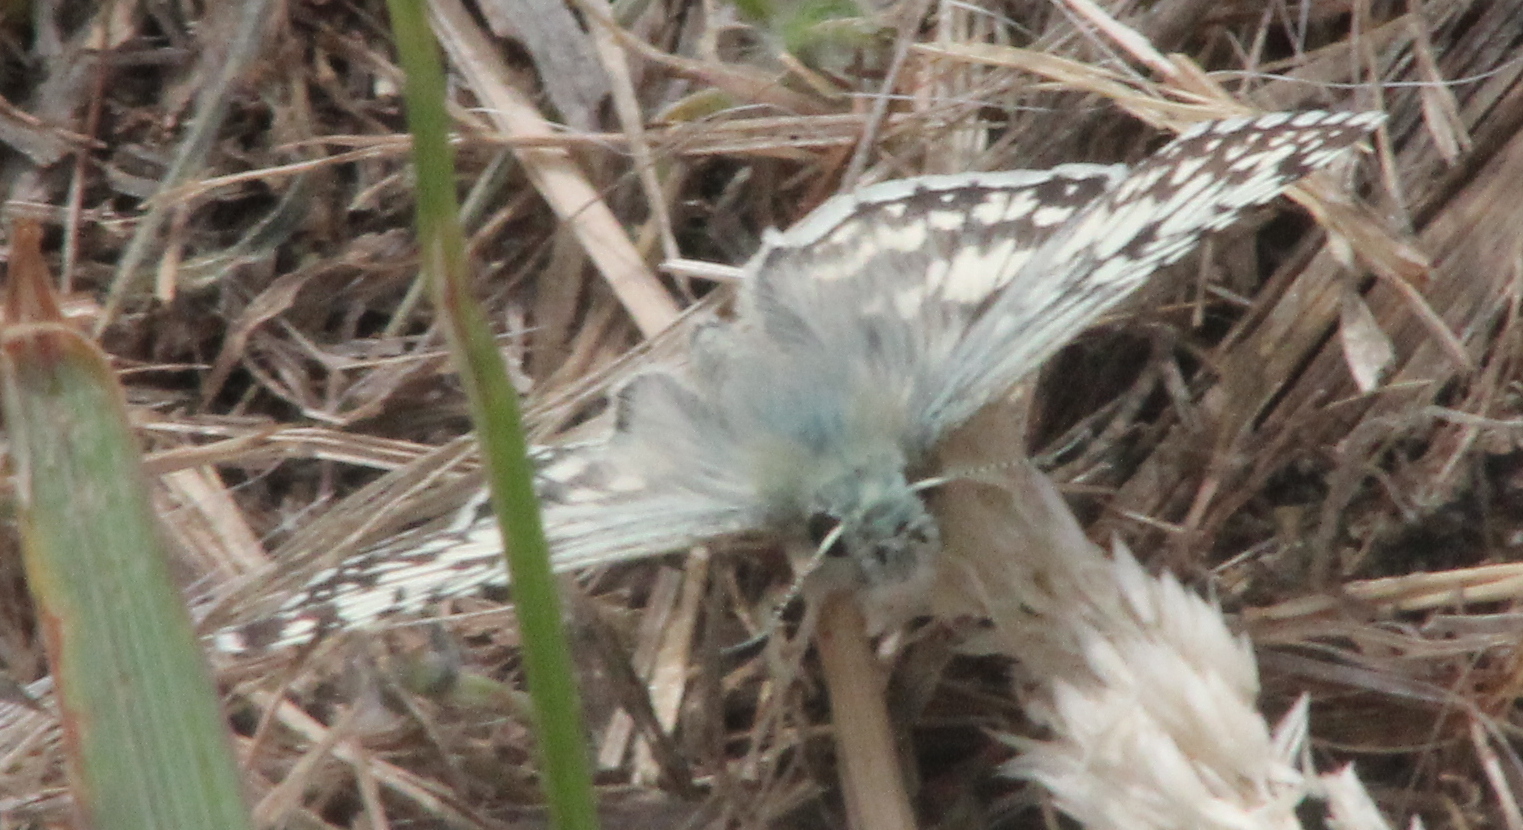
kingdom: Animalia
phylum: Arthropoda
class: Insecta
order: Lepidoptera
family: Hesperiidae
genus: Burnsius
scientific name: Burnsius communis
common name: Common checkered-skipper
